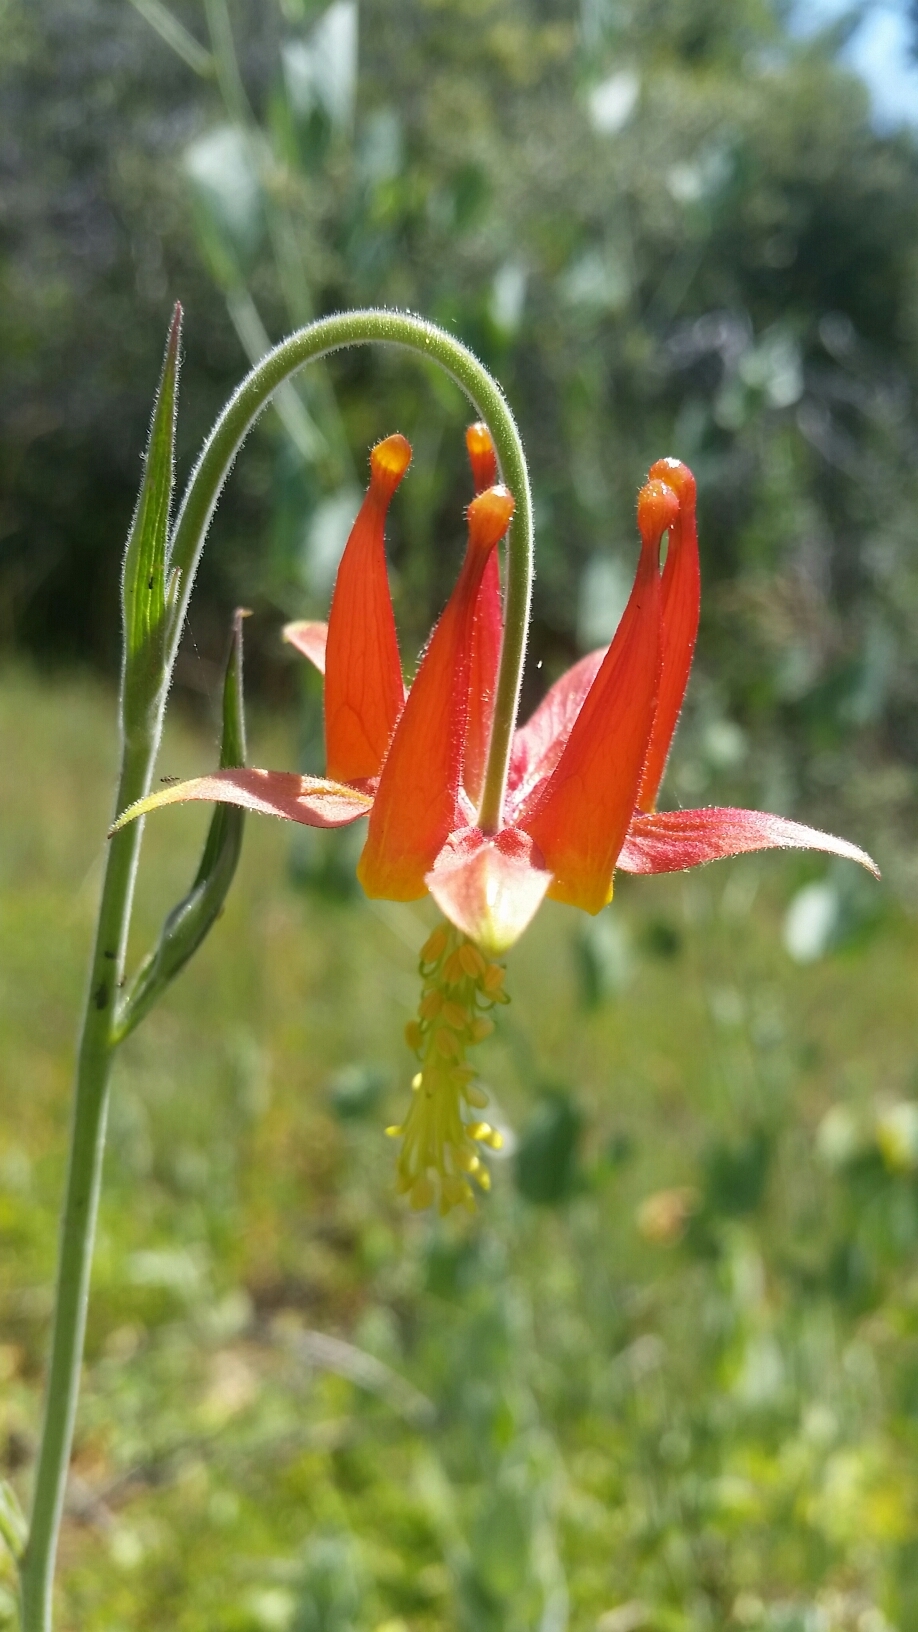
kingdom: Plantae
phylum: Tracheophyta
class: Magnoliopsida
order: Ranunculales
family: Ranunculaceae
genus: Aquilegia
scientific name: Aquilegia eximia
